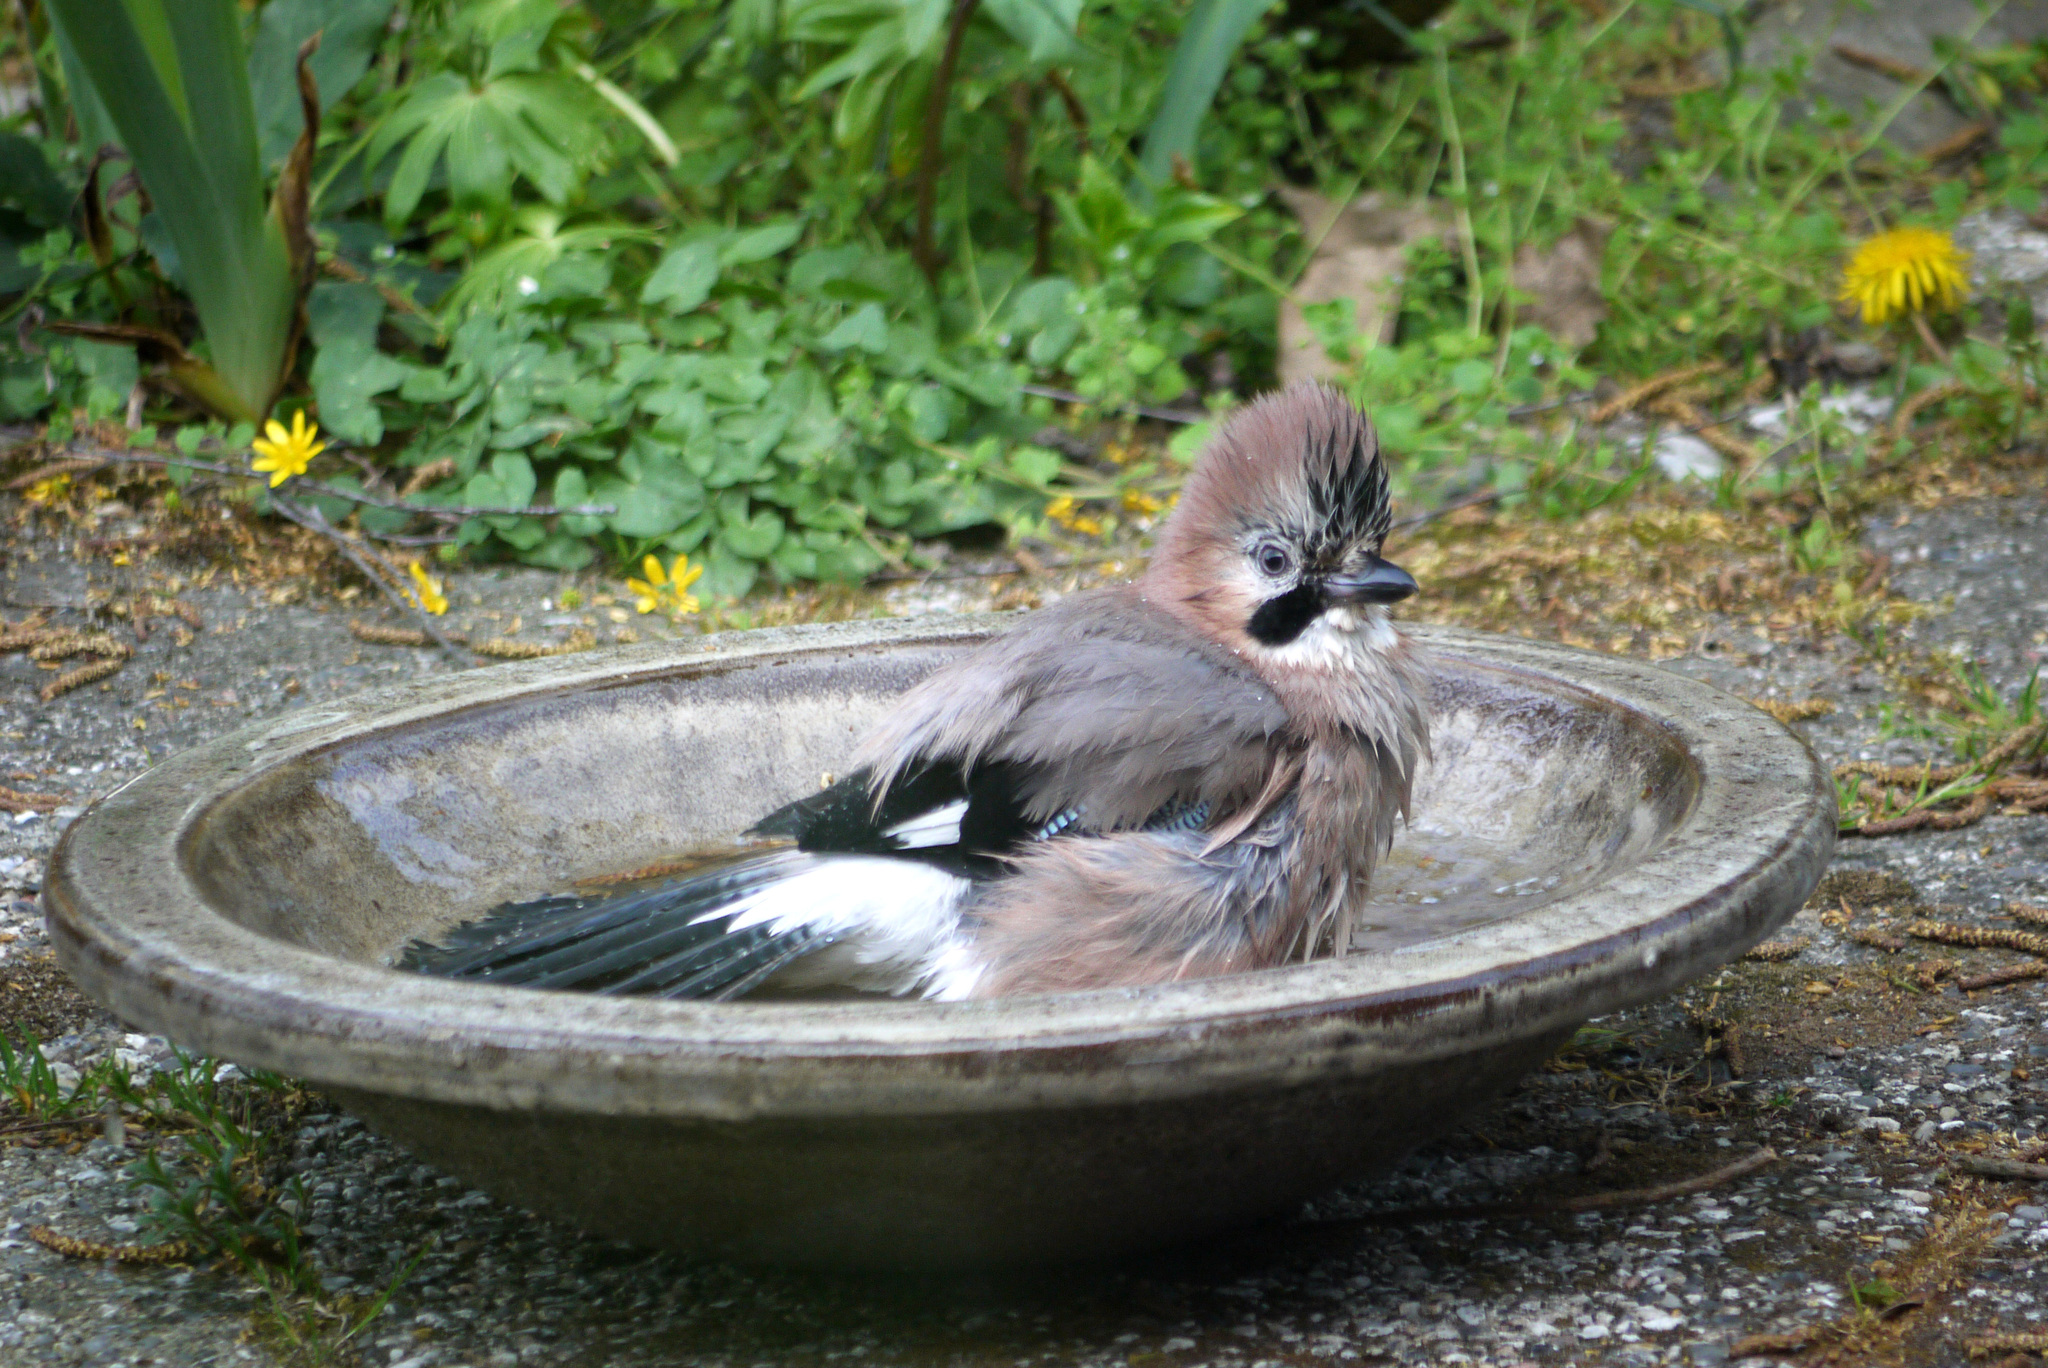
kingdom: Animalia
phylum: Chordata
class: Aves
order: Passeriformes
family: Corvidae
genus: Garrulus
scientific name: Garrulus glandarius
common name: Eurasian jay
